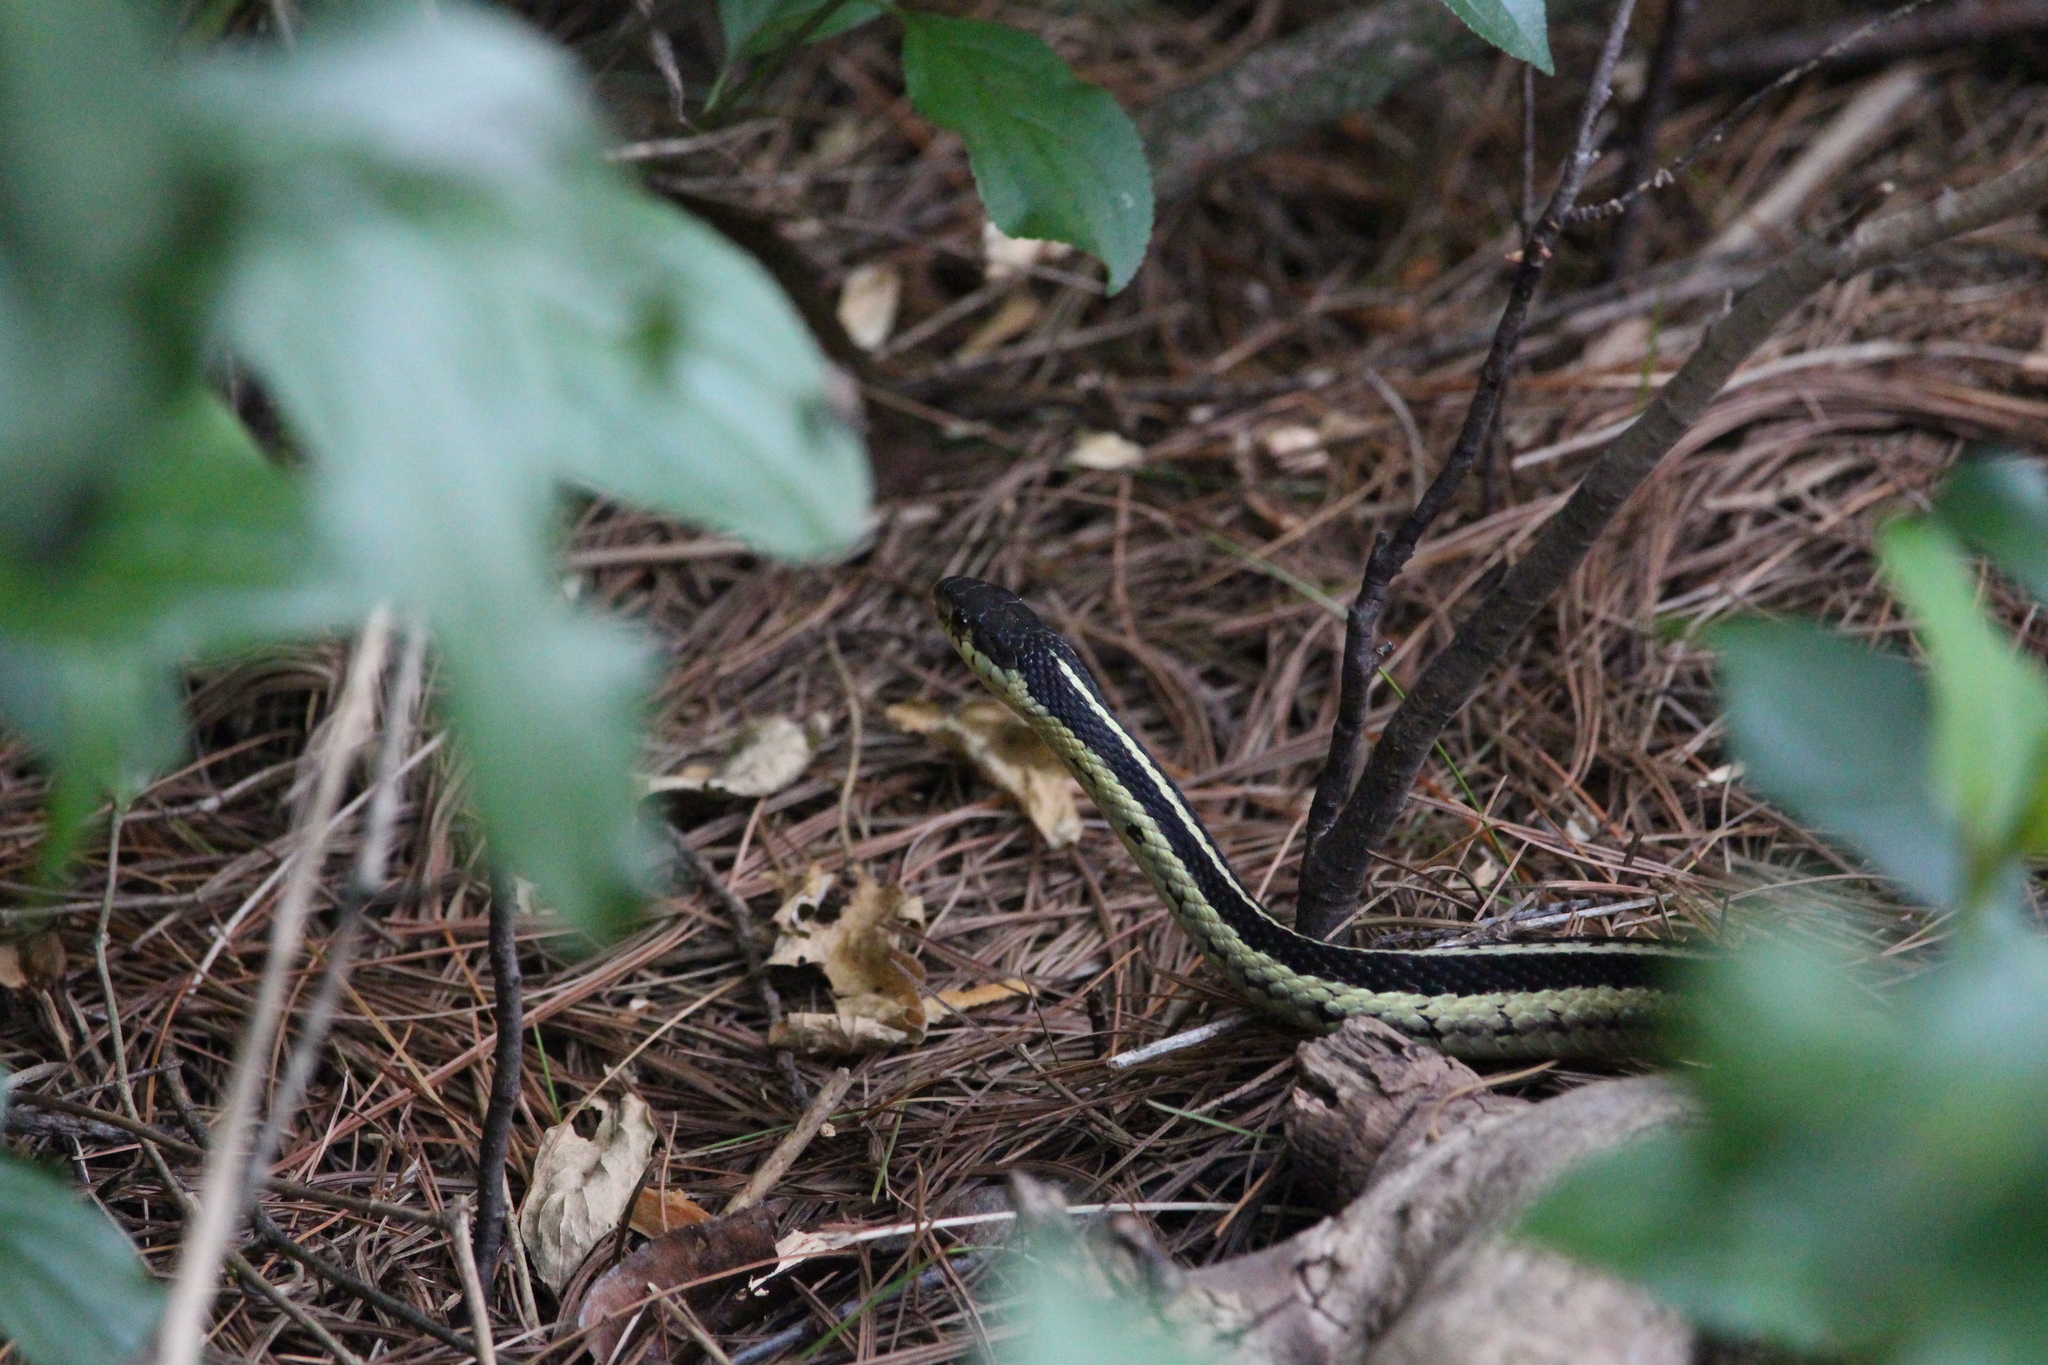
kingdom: Animalia
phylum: Chordata
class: Squamata
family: Colubridae
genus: Thamnophis
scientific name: Thamnophis sirtalis
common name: Common garter snake
